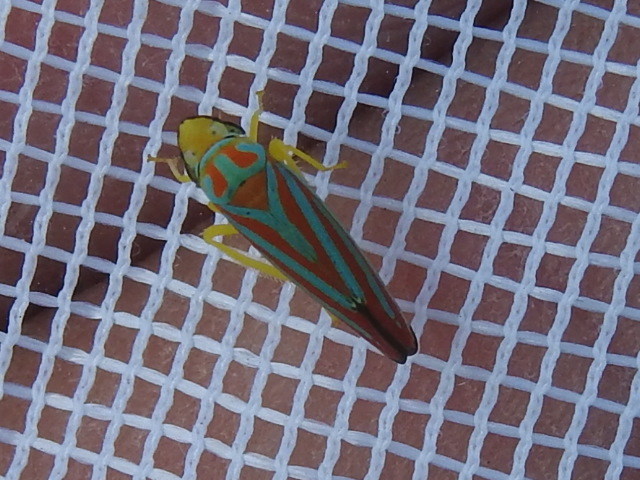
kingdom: Animalia
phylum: Arthropoda
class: Insecta
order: Hemiptera
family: Cicadellidae
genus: Graphocephala
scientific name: Graphocephala coccinea
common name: Candy-striped leafhopper
